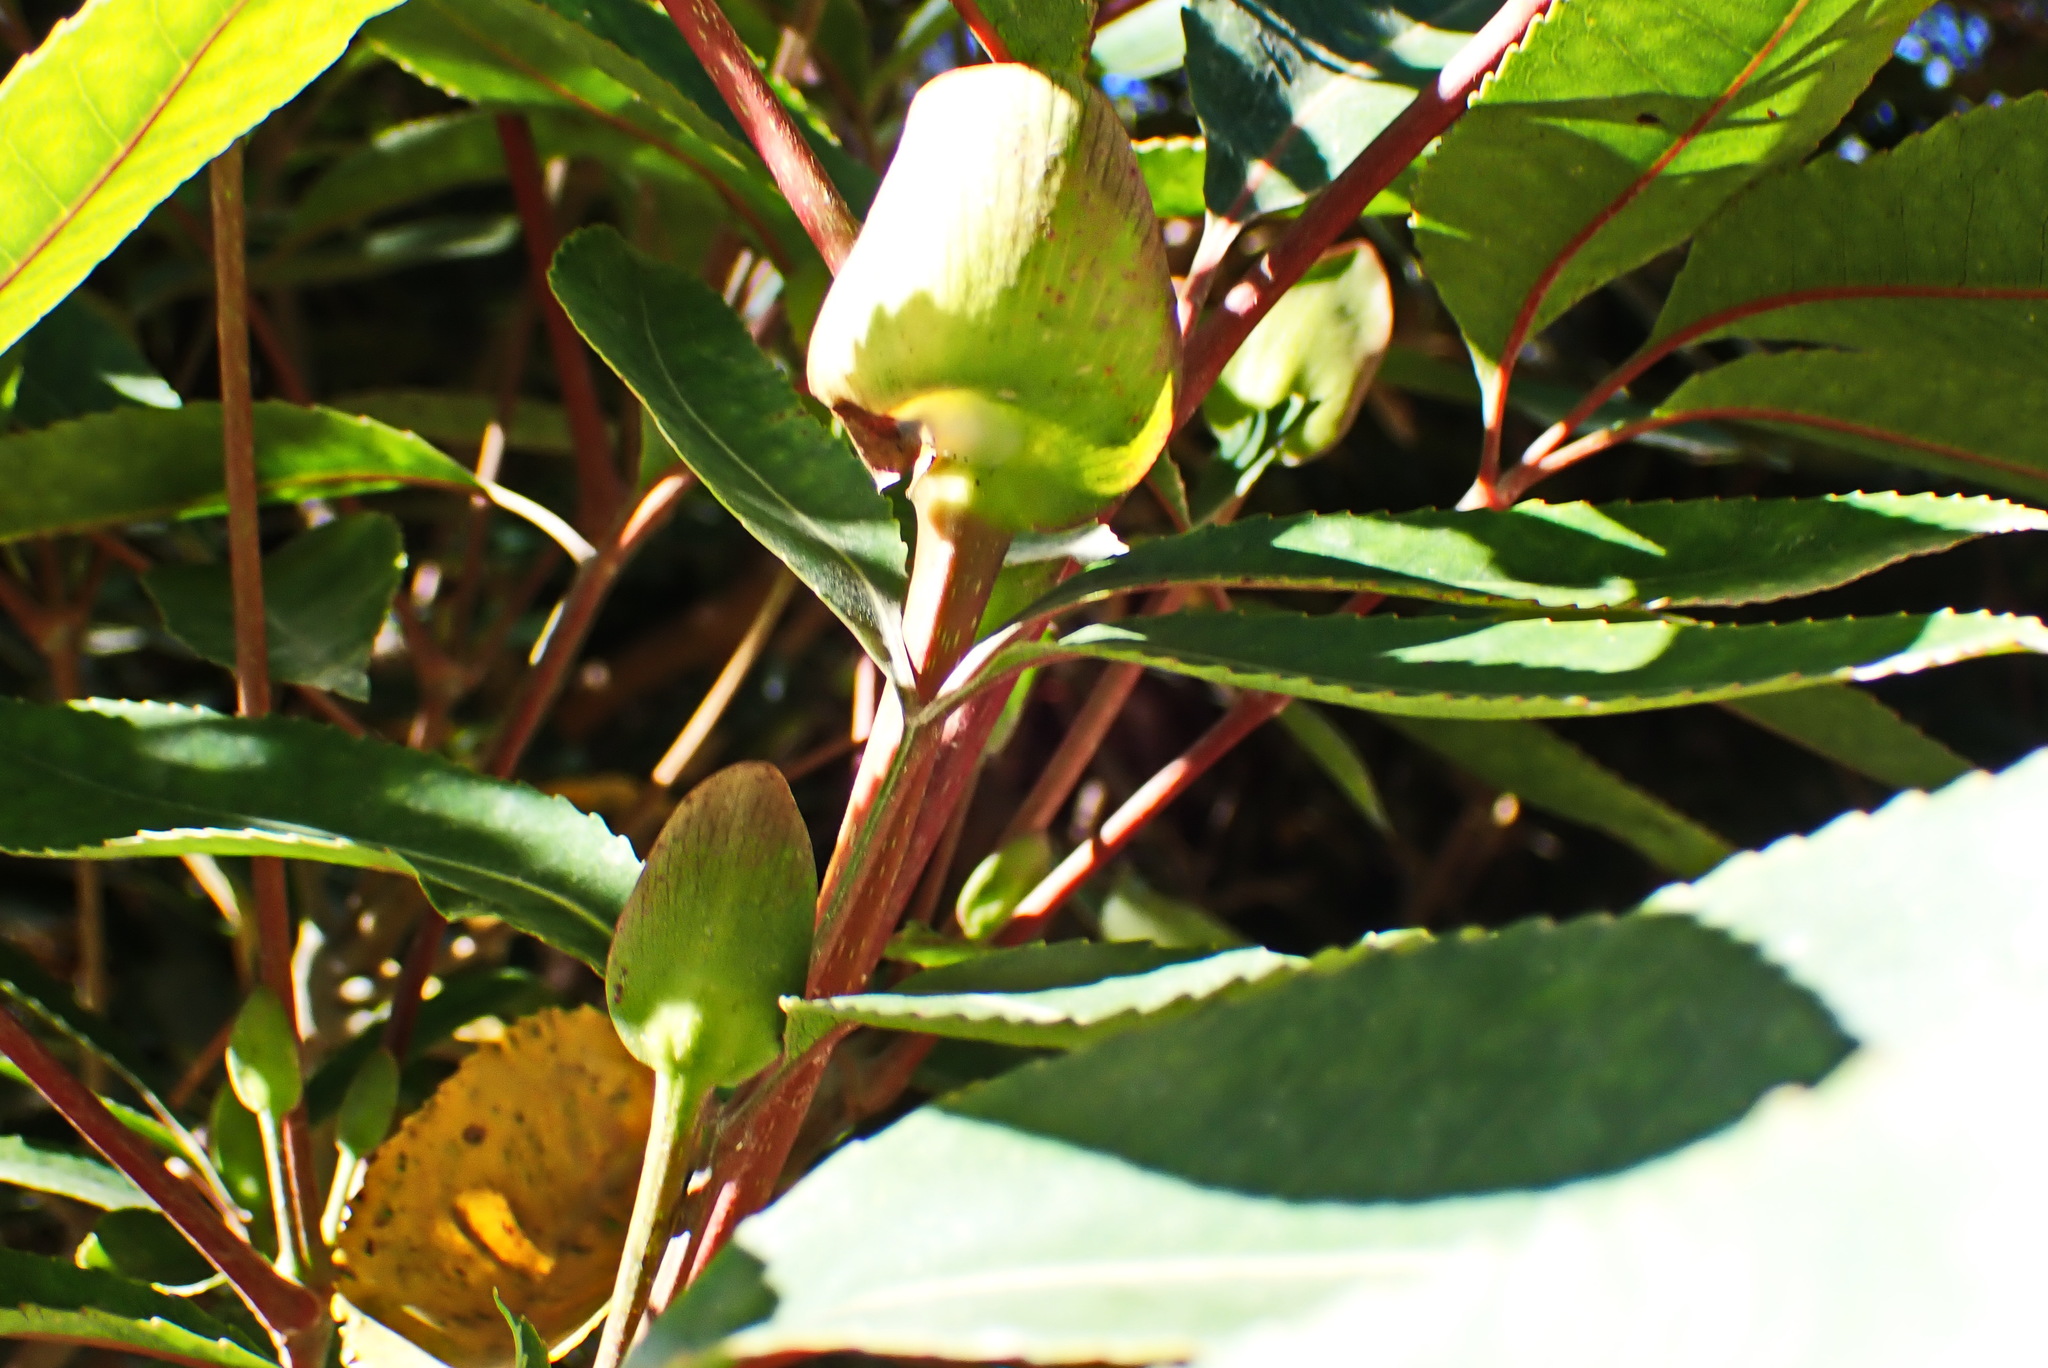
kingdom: Plantae
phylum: Tracheophyta
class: Magnoliopsida
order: Oxalidales
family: Cunoniaceae
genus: Cunonia
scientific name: Cunonia capensis
